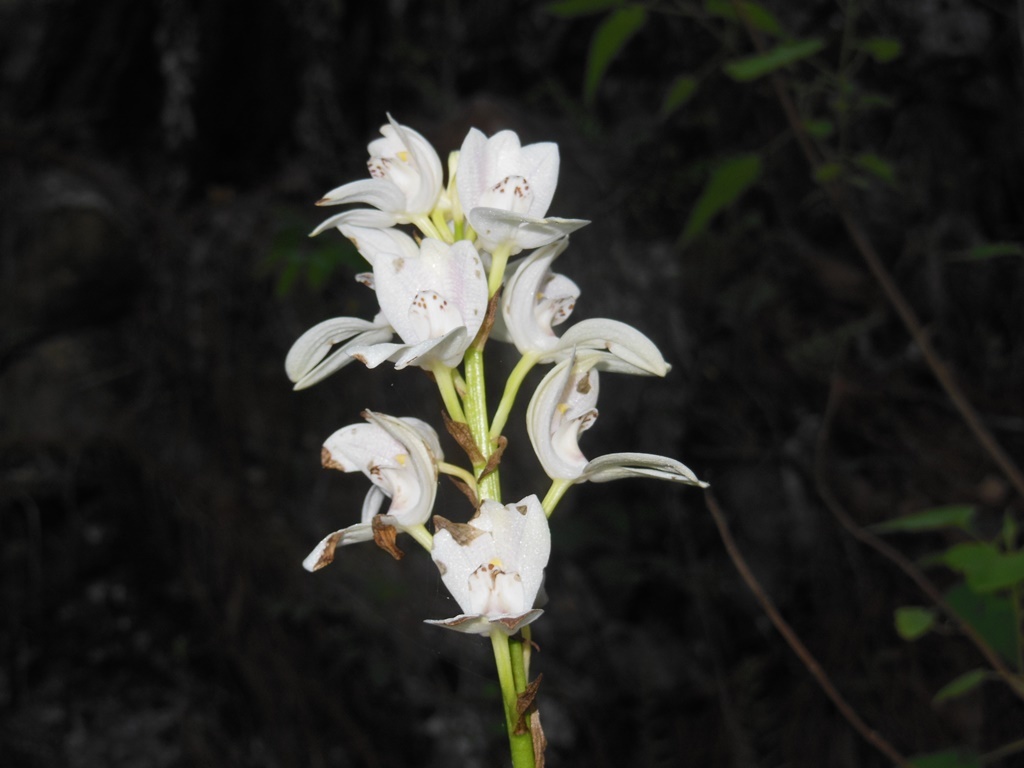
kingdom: Plantae
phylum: Tracheophyta
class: Liliopsida
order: Asparagales
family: Orchidaceae
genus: Govenia
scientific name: Govenia liliacea
